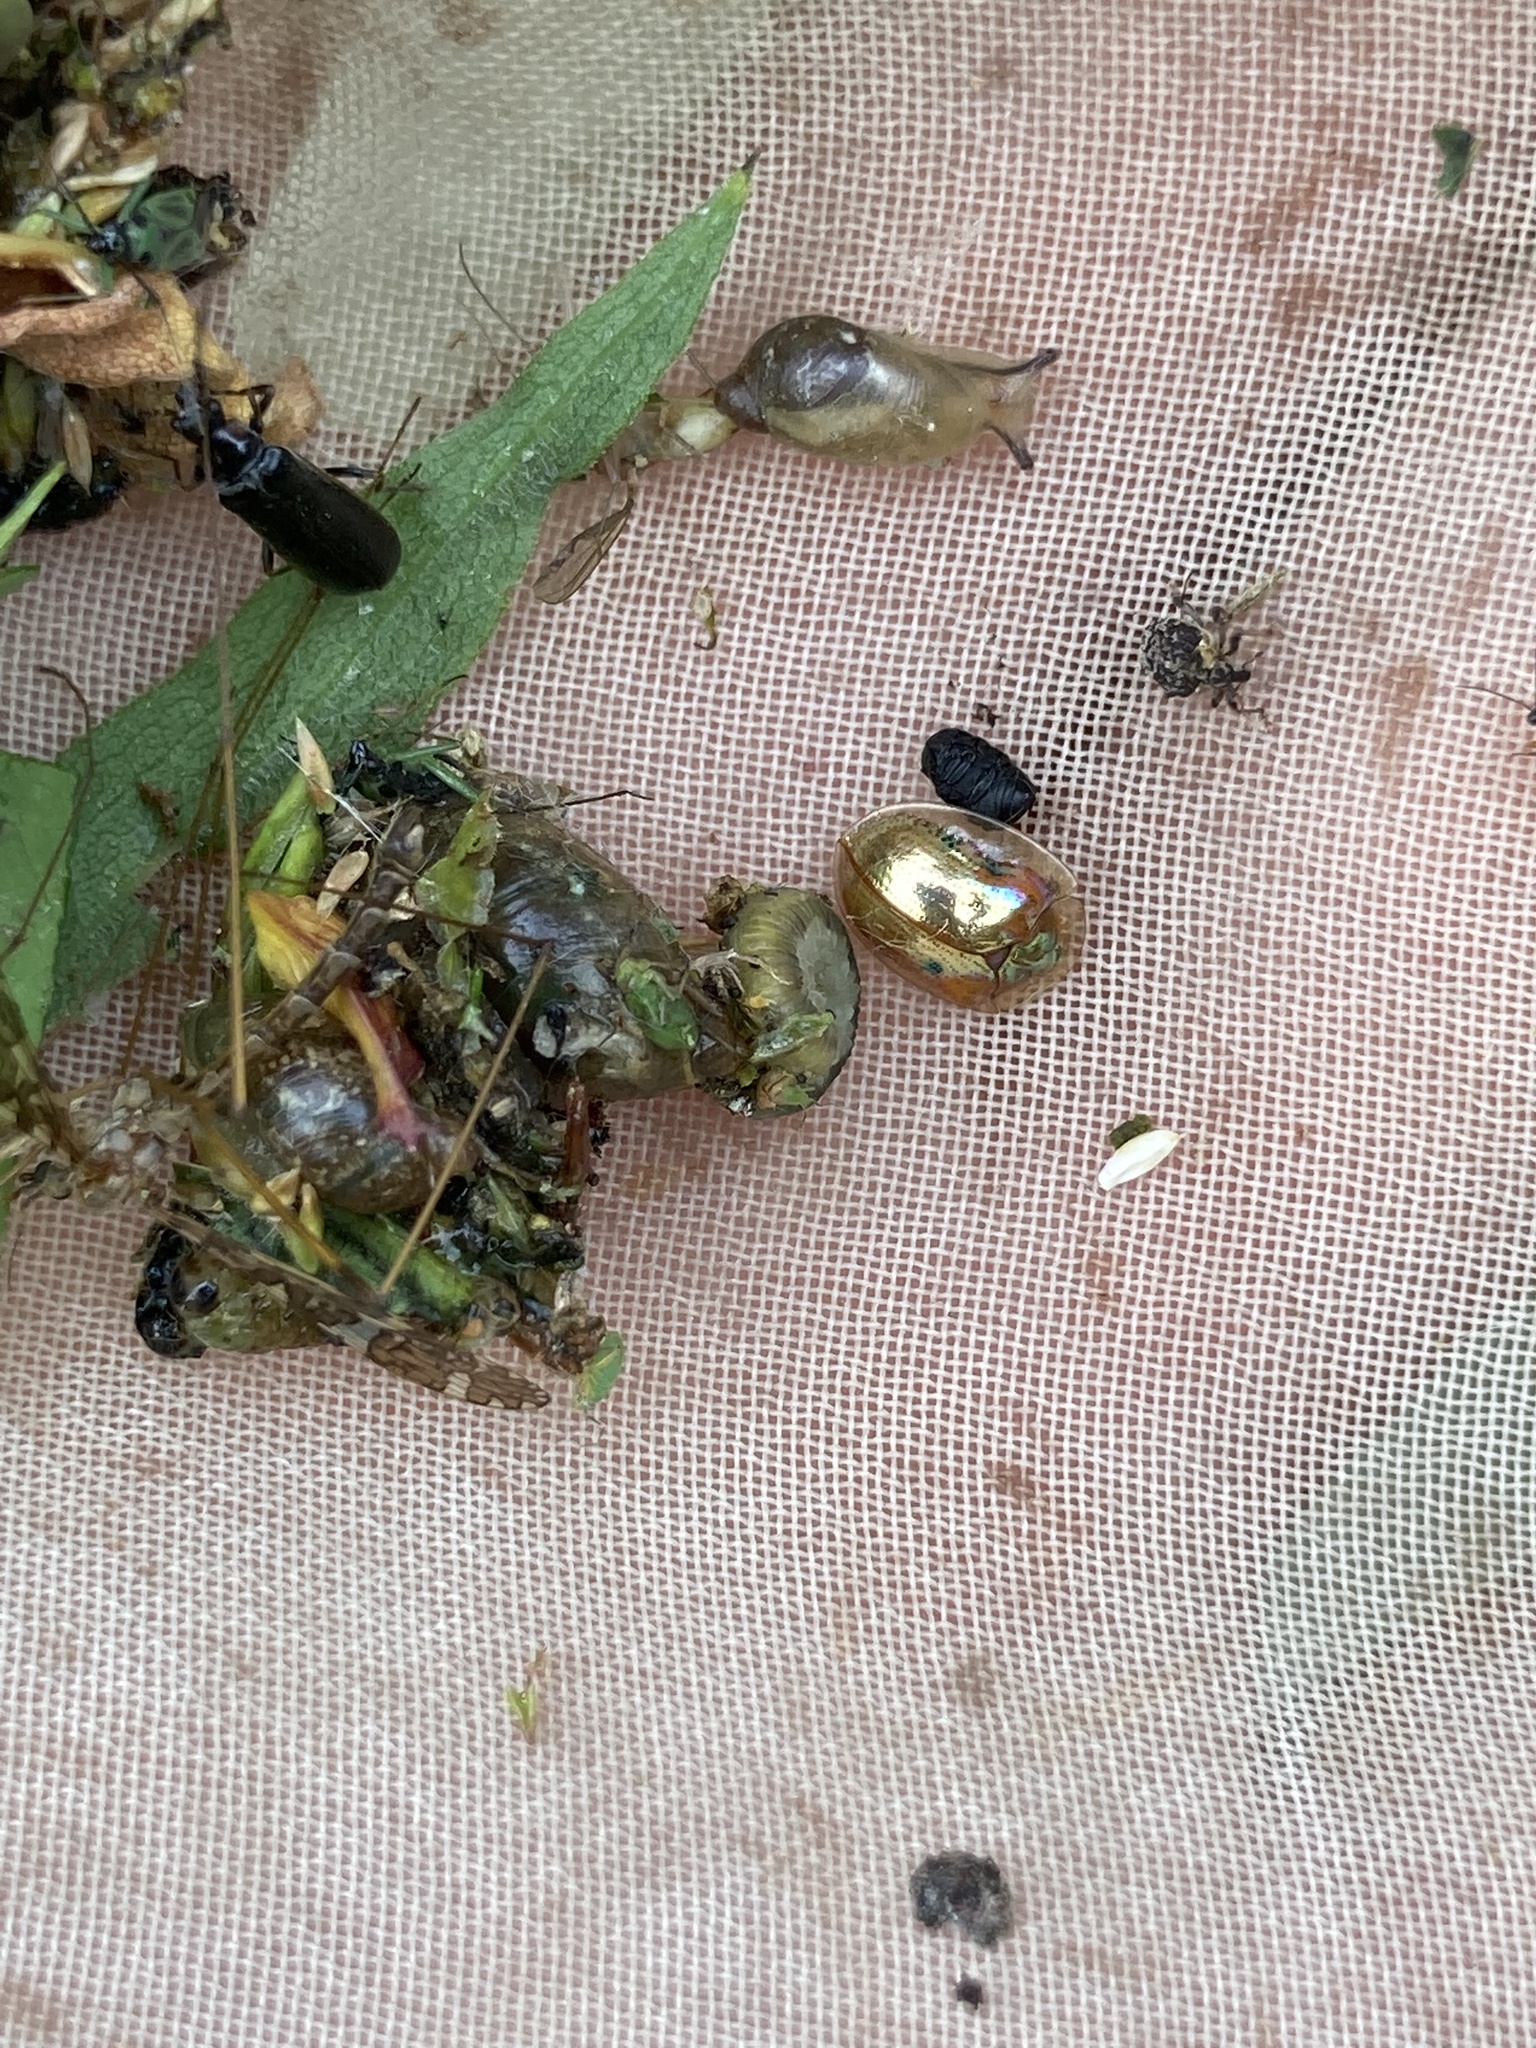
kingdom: Animalia
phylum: Arthropoda
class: Insecta
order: Coleoptera
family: Chrysomelidae
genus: Charidotella
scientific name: Charidotella sexpunctata
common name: Golden tortoise beetle
